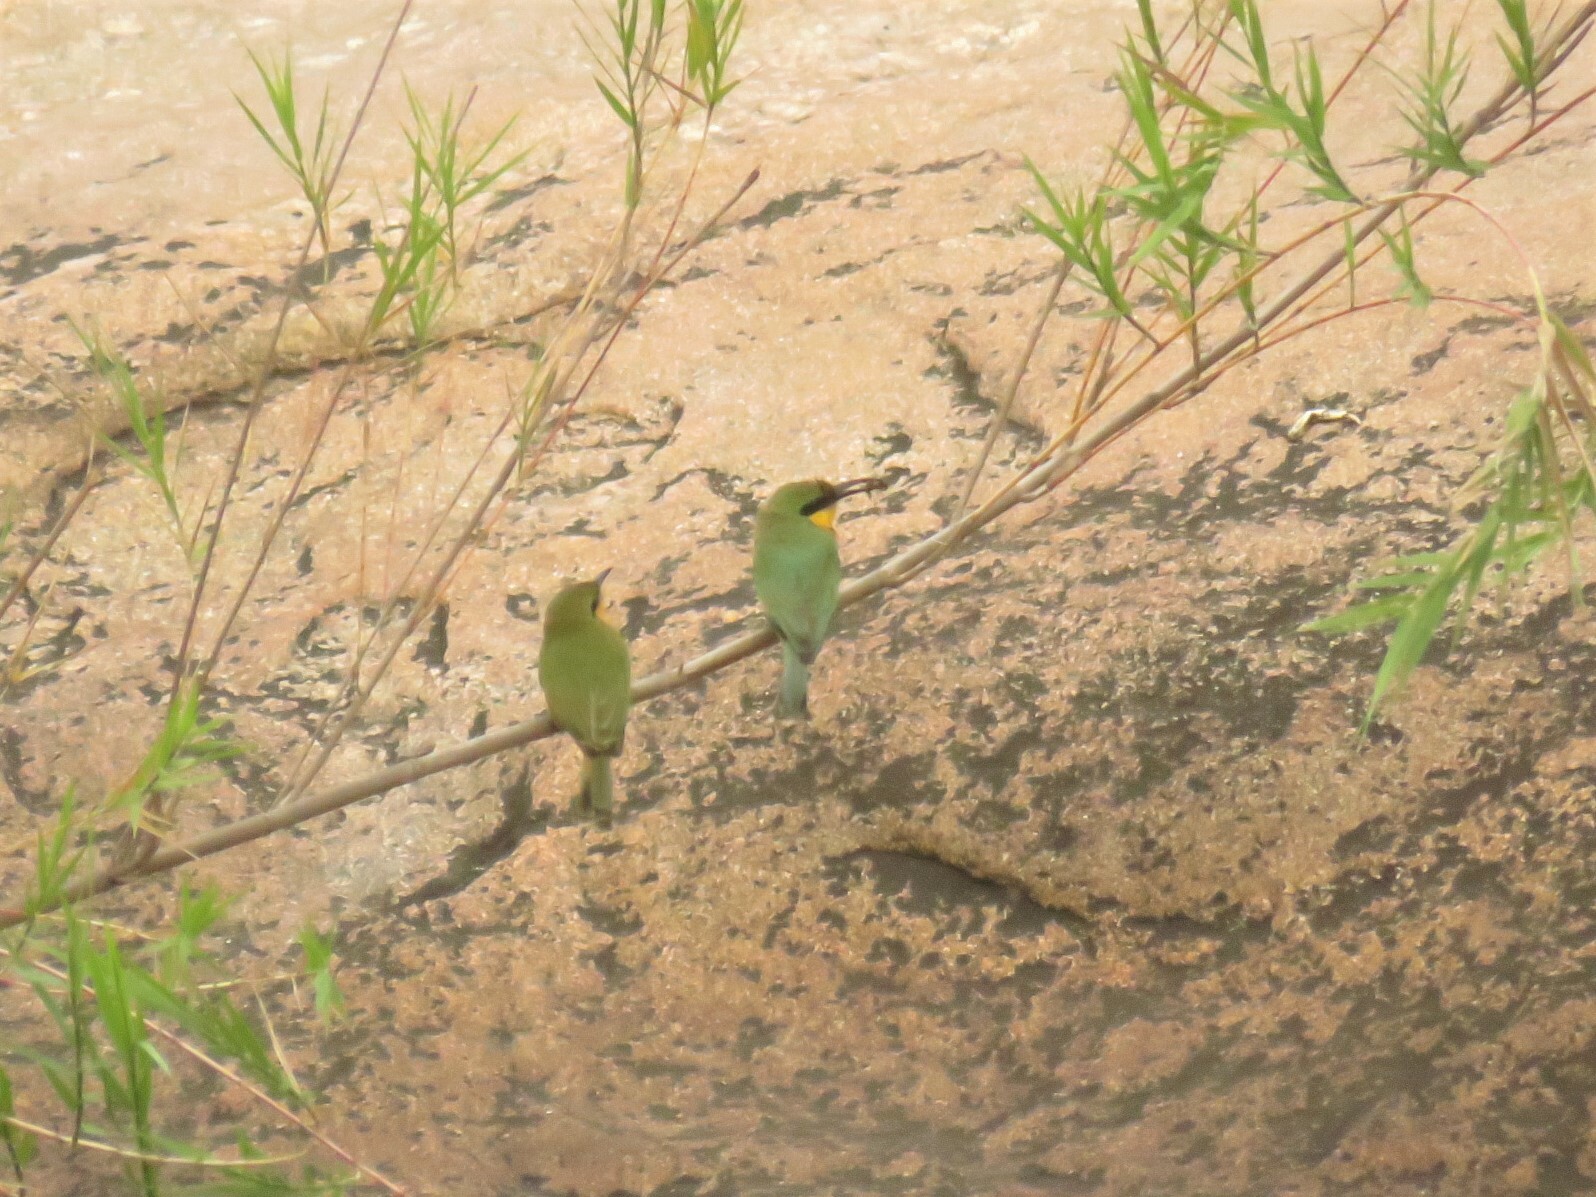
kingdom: Animalia
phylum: Chordata
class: Aves
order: Coraciiformes
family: Meropidae
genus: Merops
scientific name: Merops pusillus
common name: Little bee-eater
